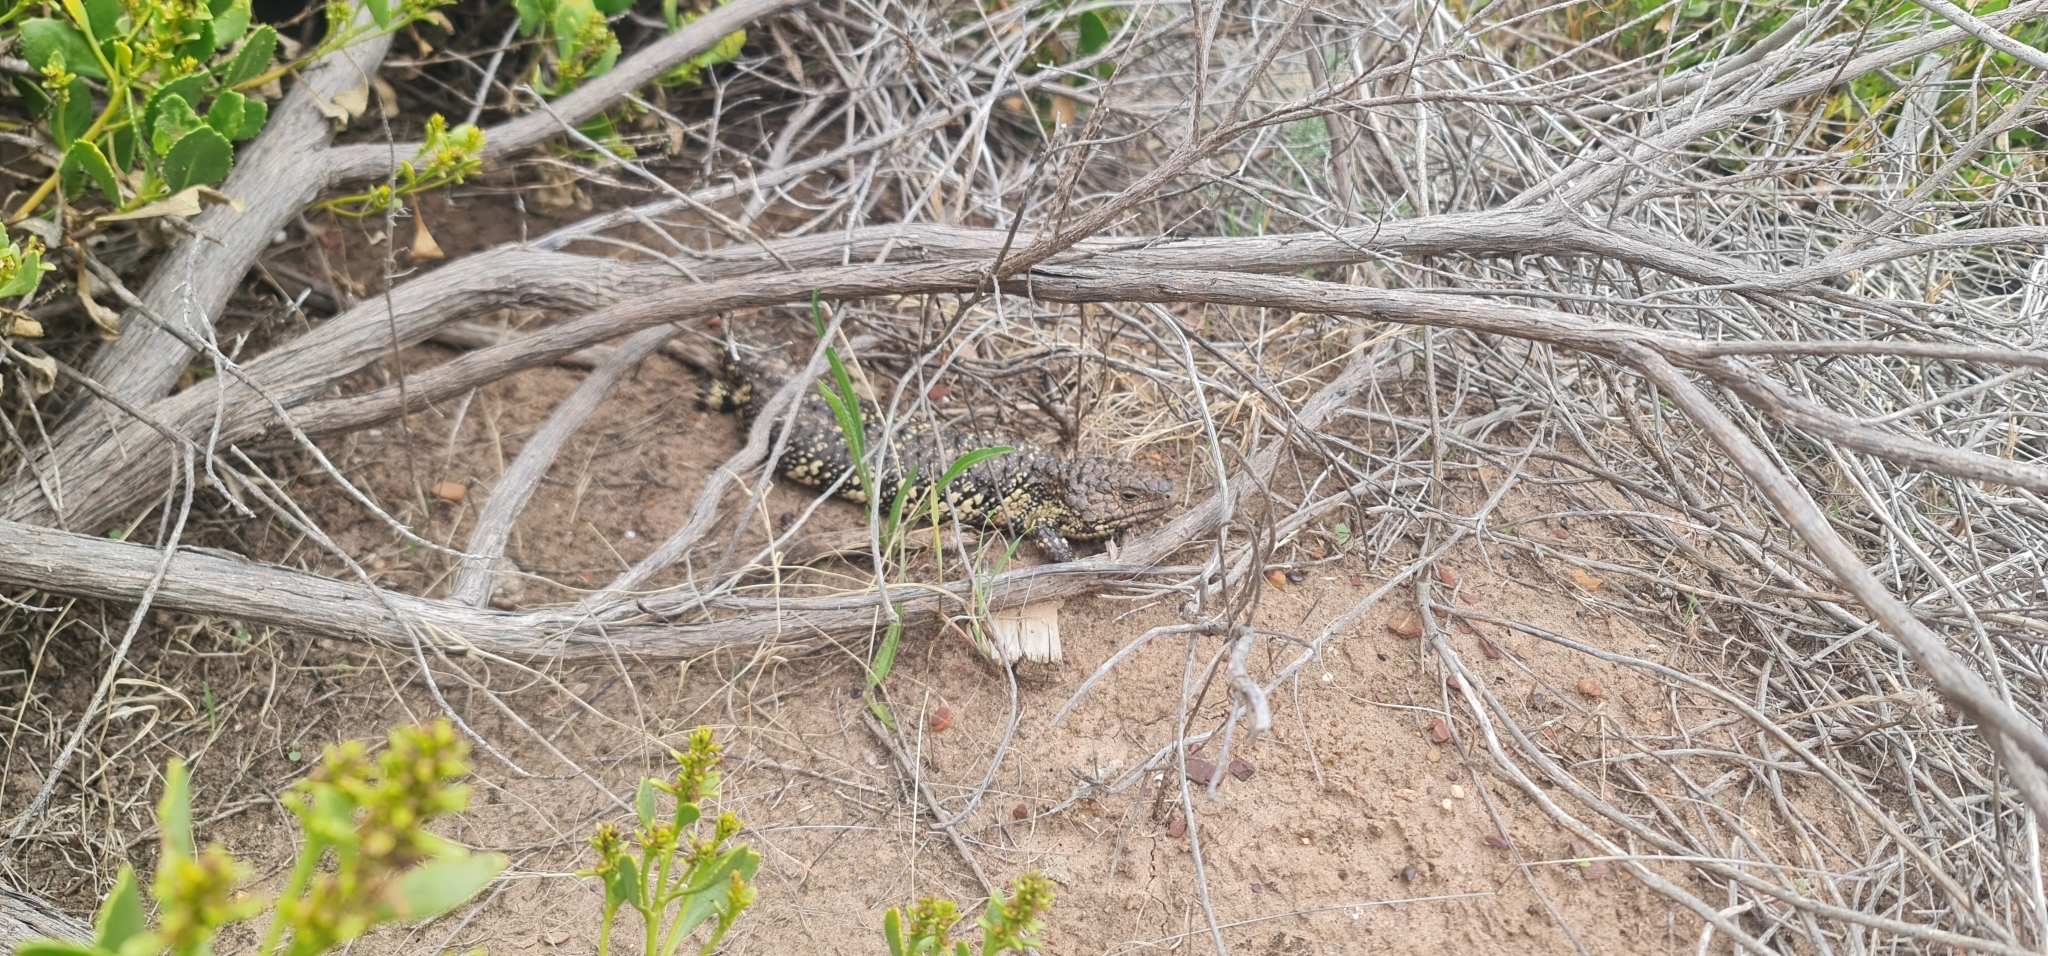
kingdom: Animalia
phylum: Chordata
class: Squamata
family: Scincidae
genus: Tiliqua
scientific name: Tiliqua rugosa
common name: Pinecone lizard
